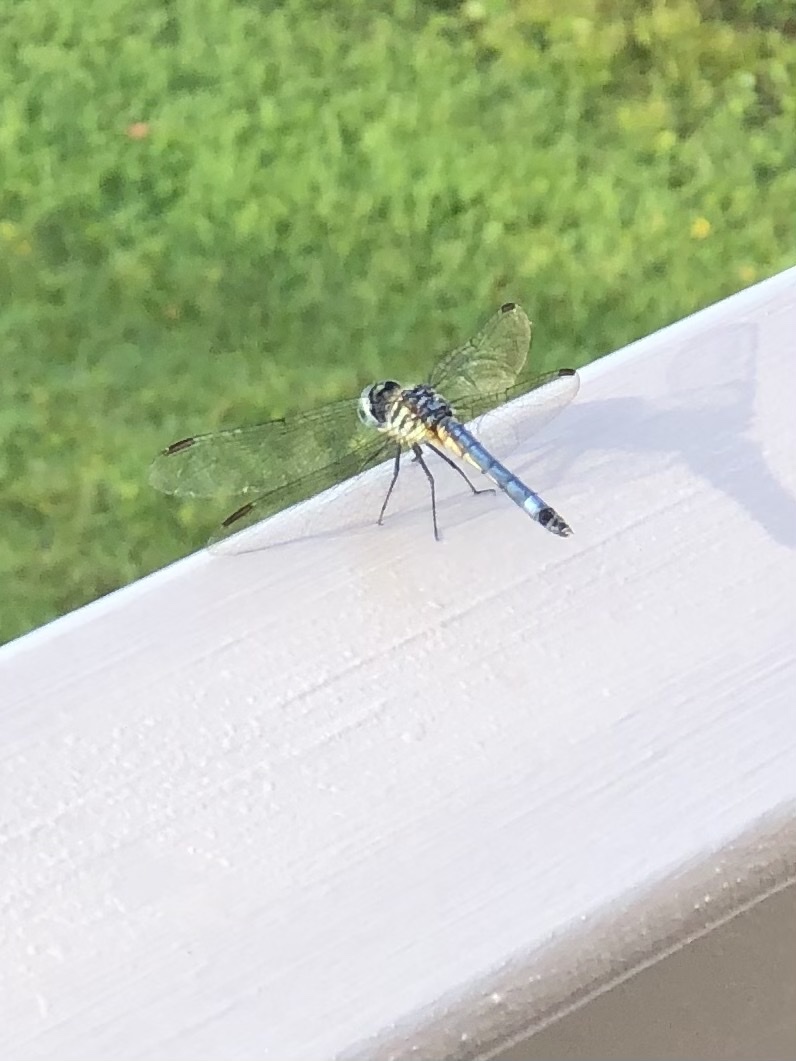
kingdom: Animalia
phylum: Arthropoda
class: Insecta
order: Odonata
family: Libellulidae
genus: Pachydiplax
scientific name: Pachydiplax longipennis
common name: Blue dasher
